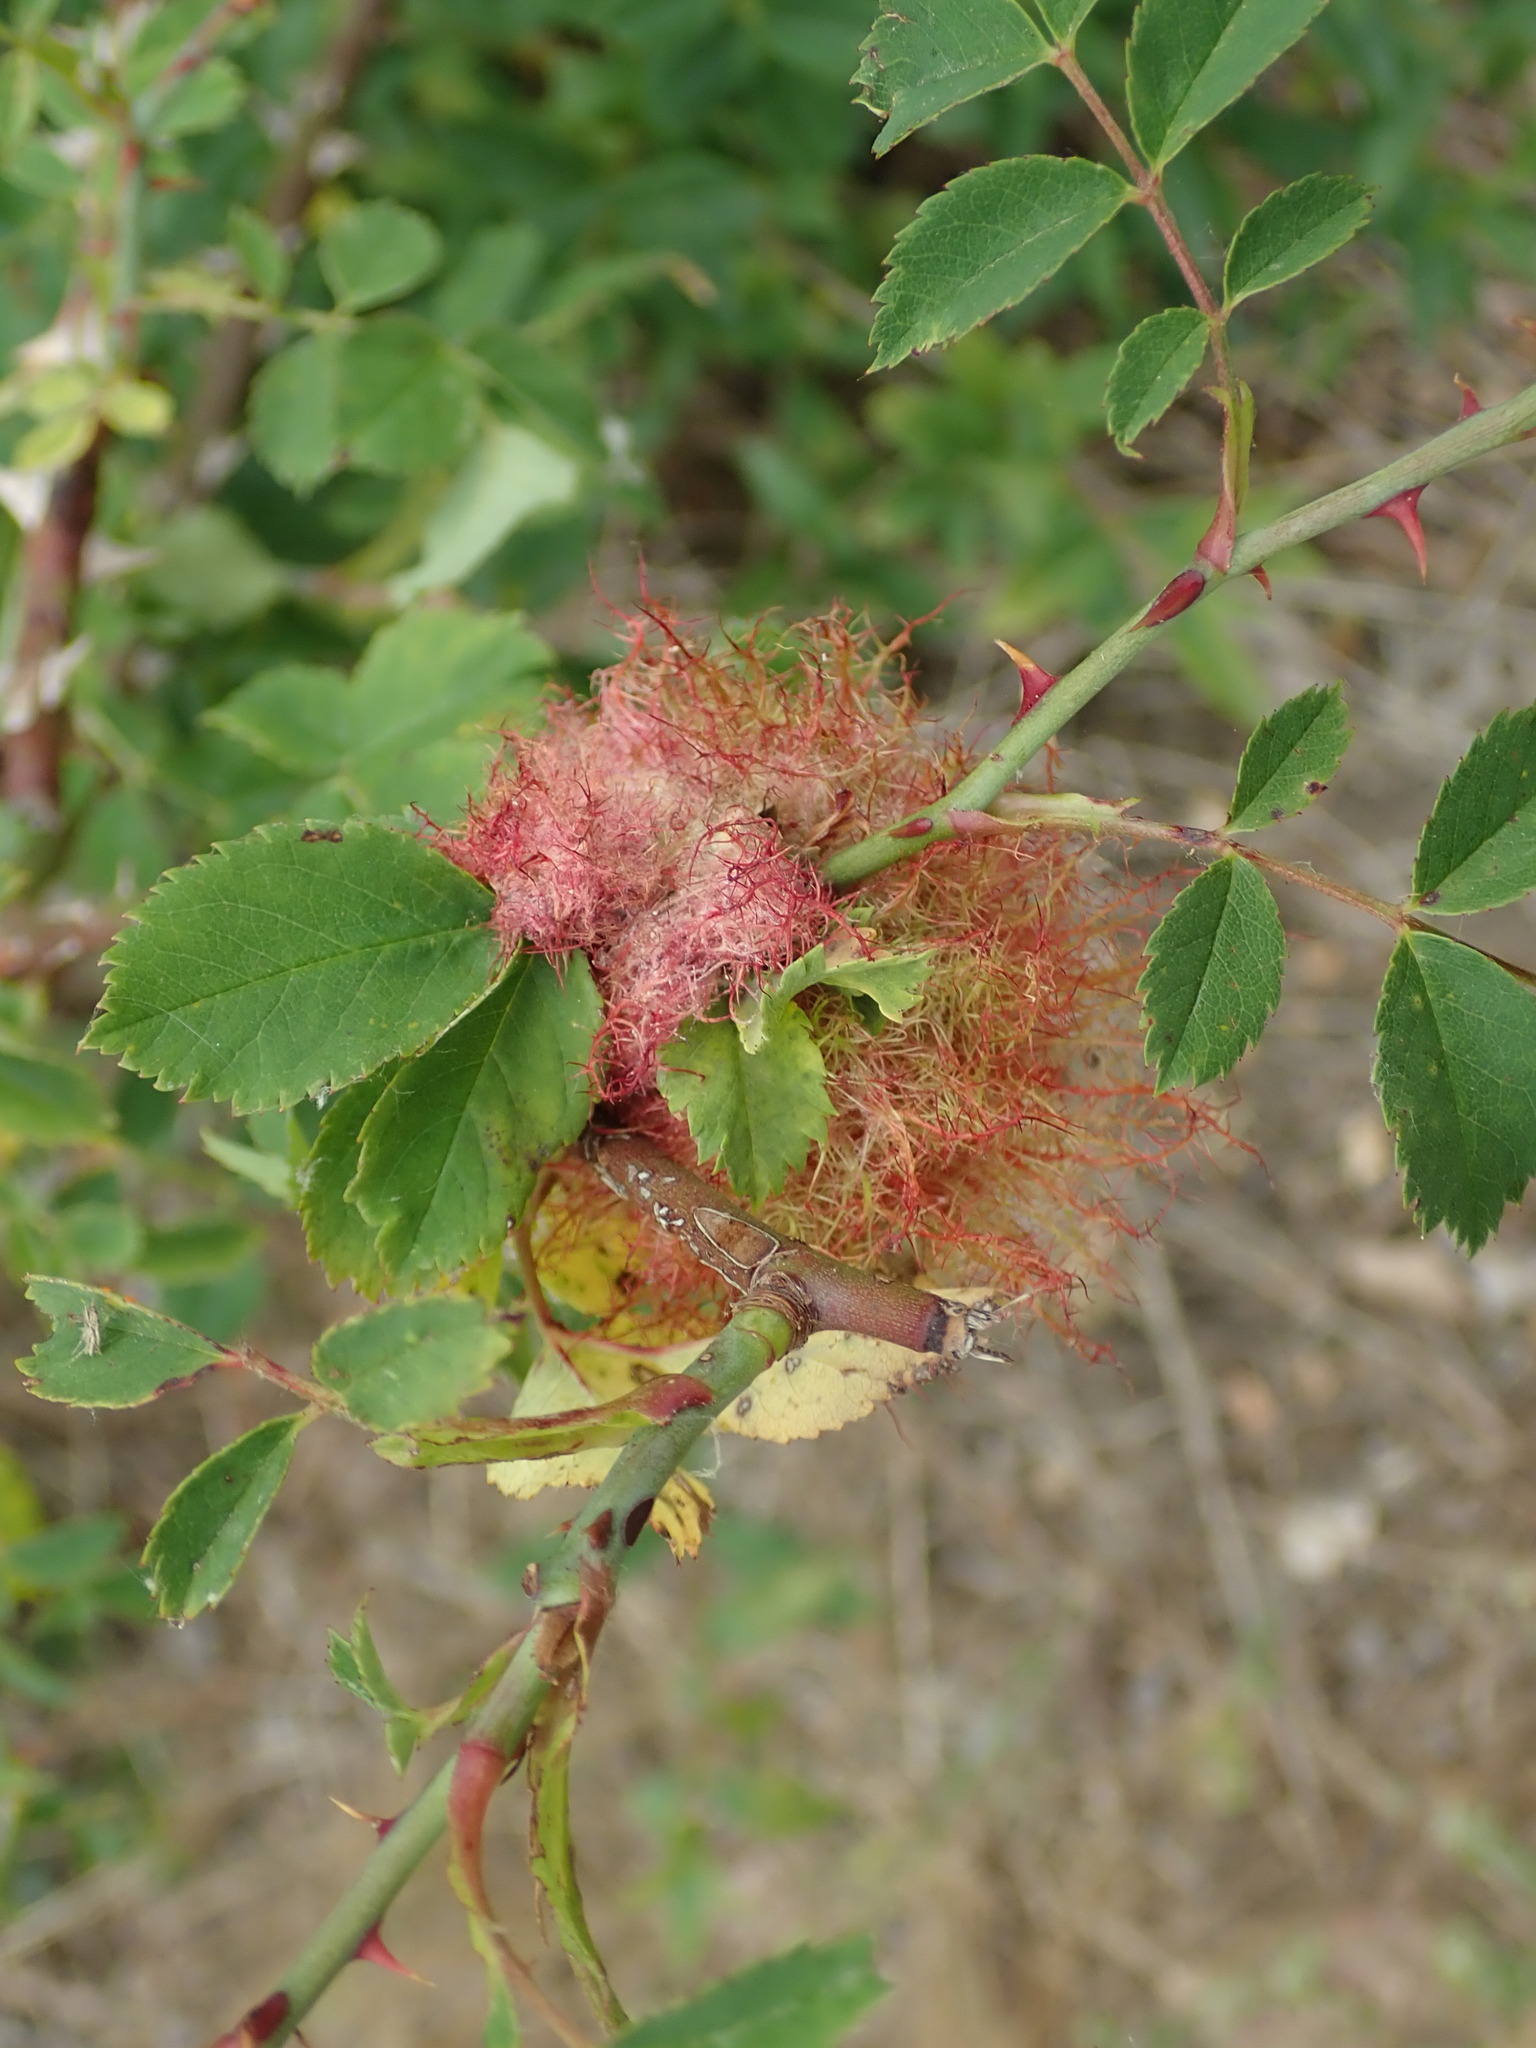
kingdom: Animalia
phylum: Arthropoda
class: Insecta
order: Hymenoptera
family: Cynipidae
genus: Diplolepis
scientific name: Diplolepis rosae
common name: Bedeguar gall
